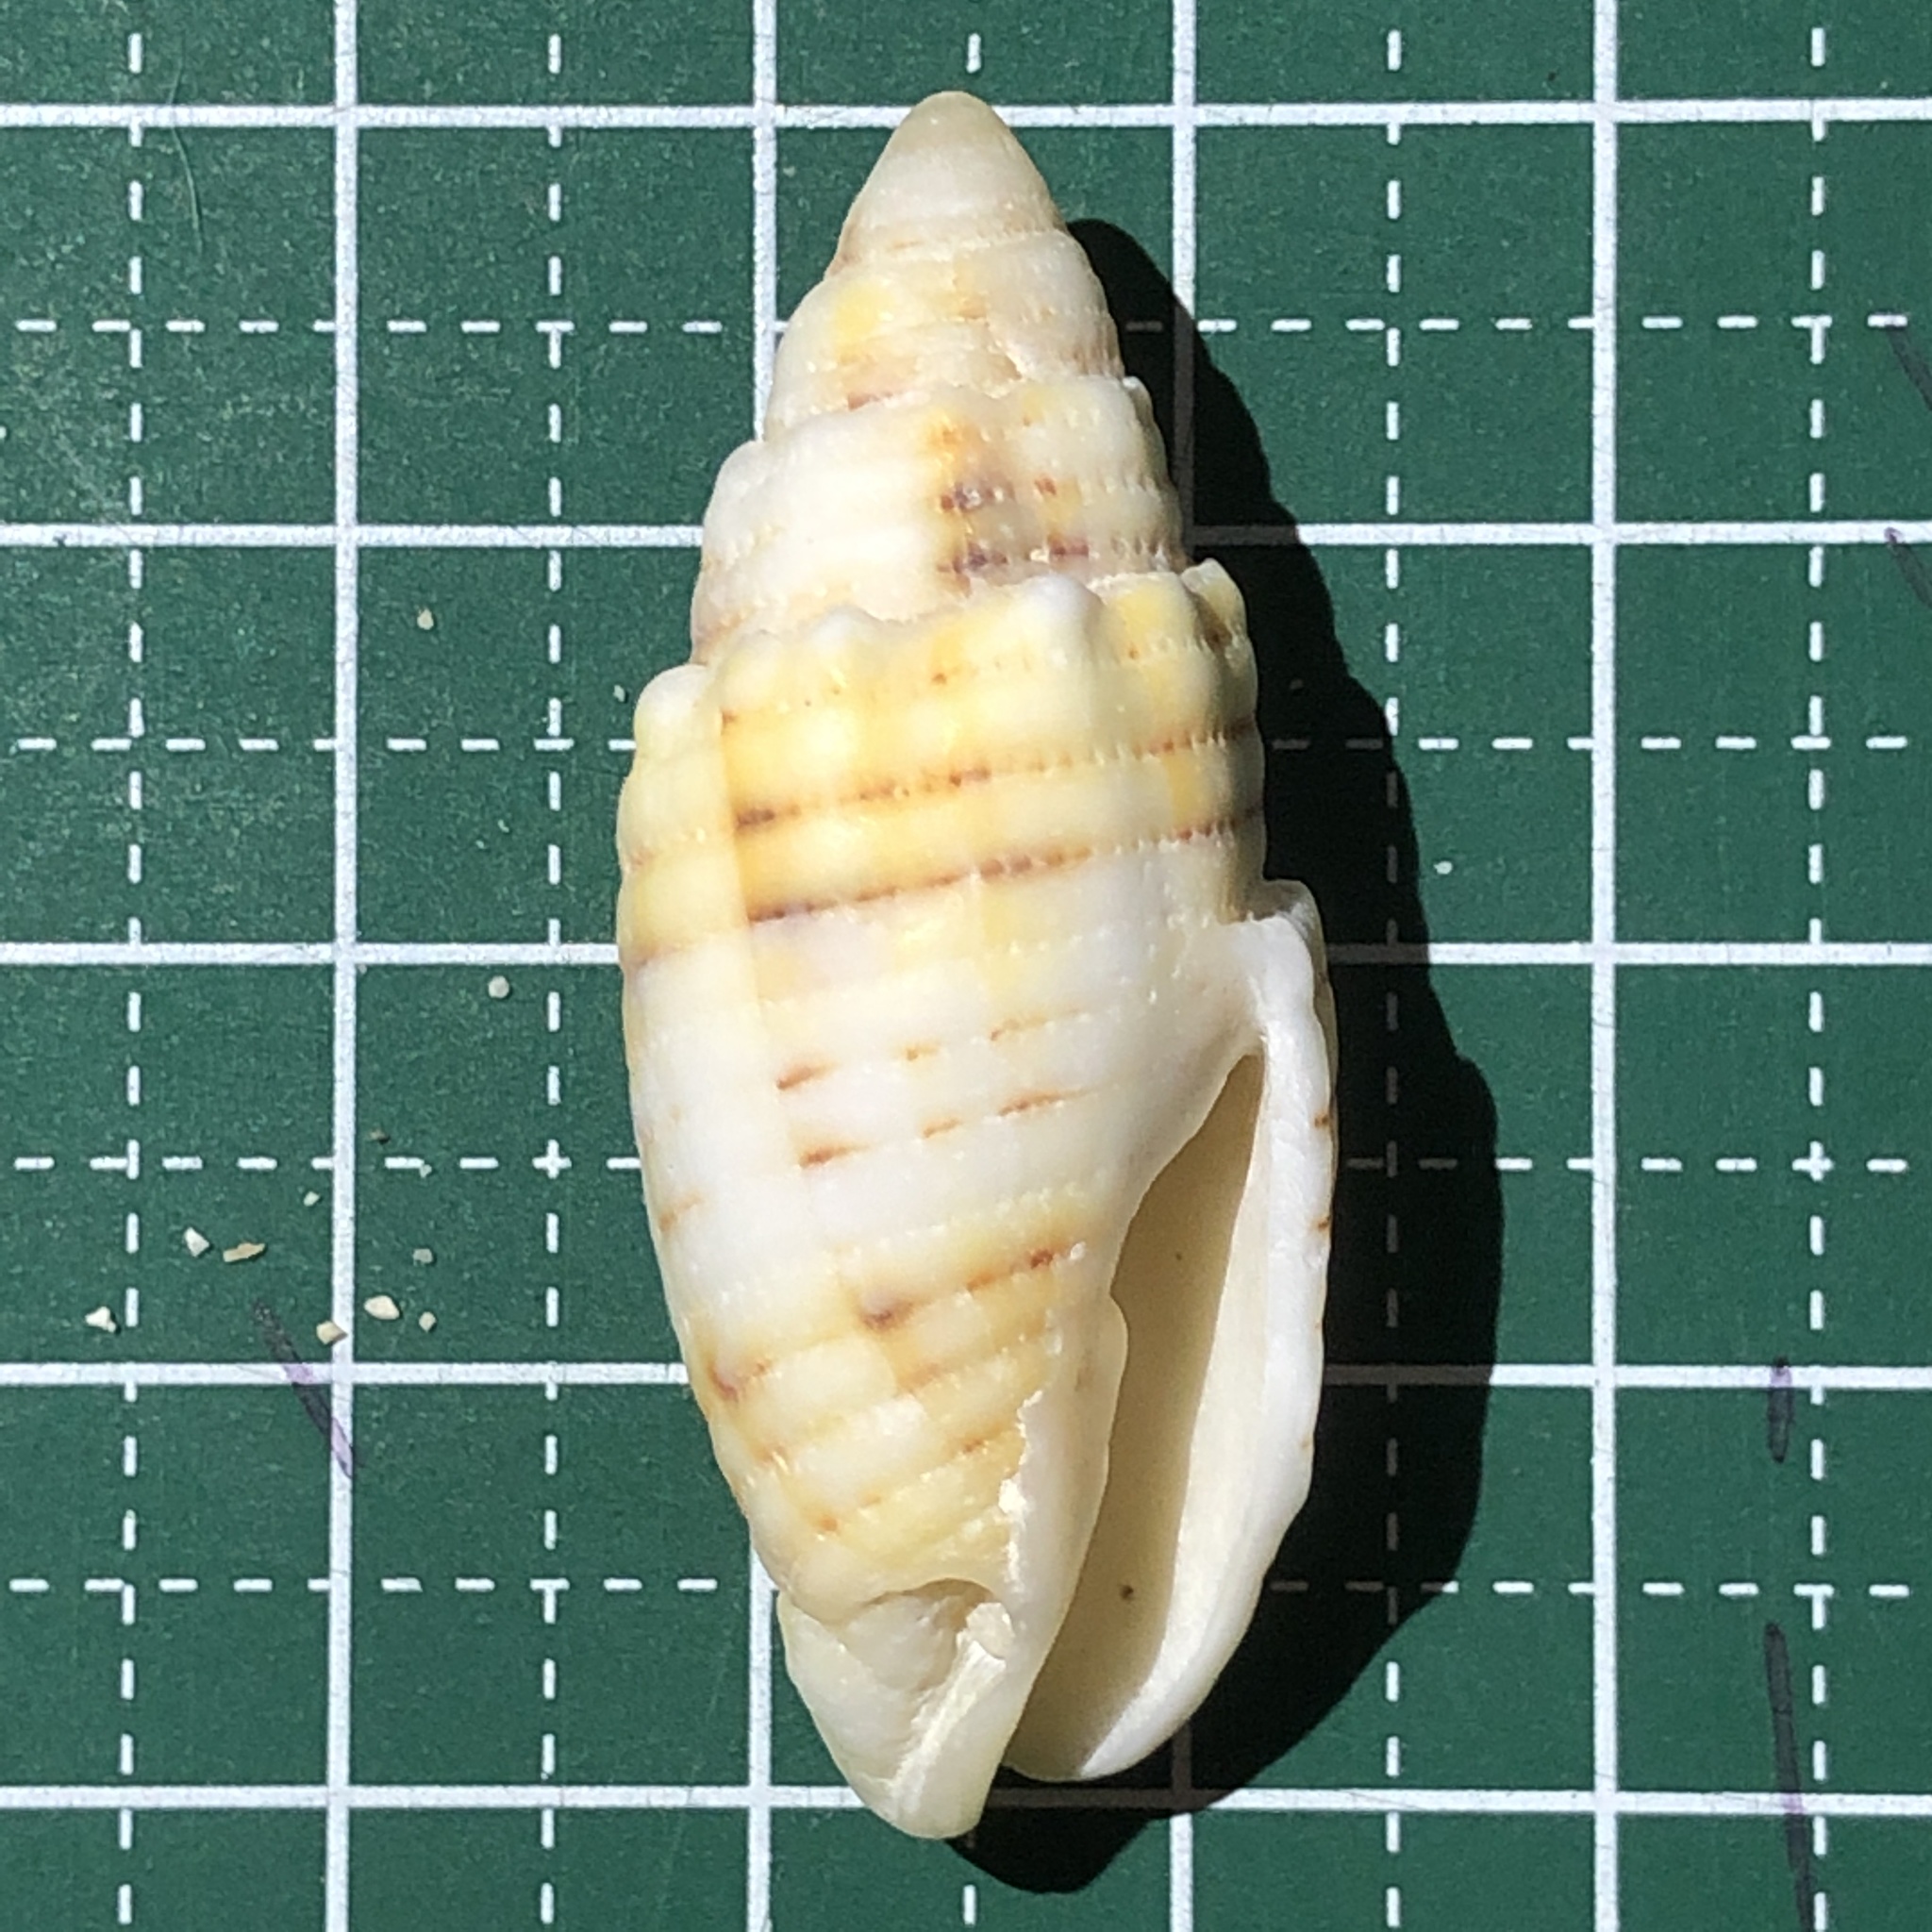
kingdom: Animalia
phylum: Mollusca
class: Gastropoda
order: Neogastropoda
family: Mitridae
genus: Quasimitra
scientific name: Quasimitra puncticulata
